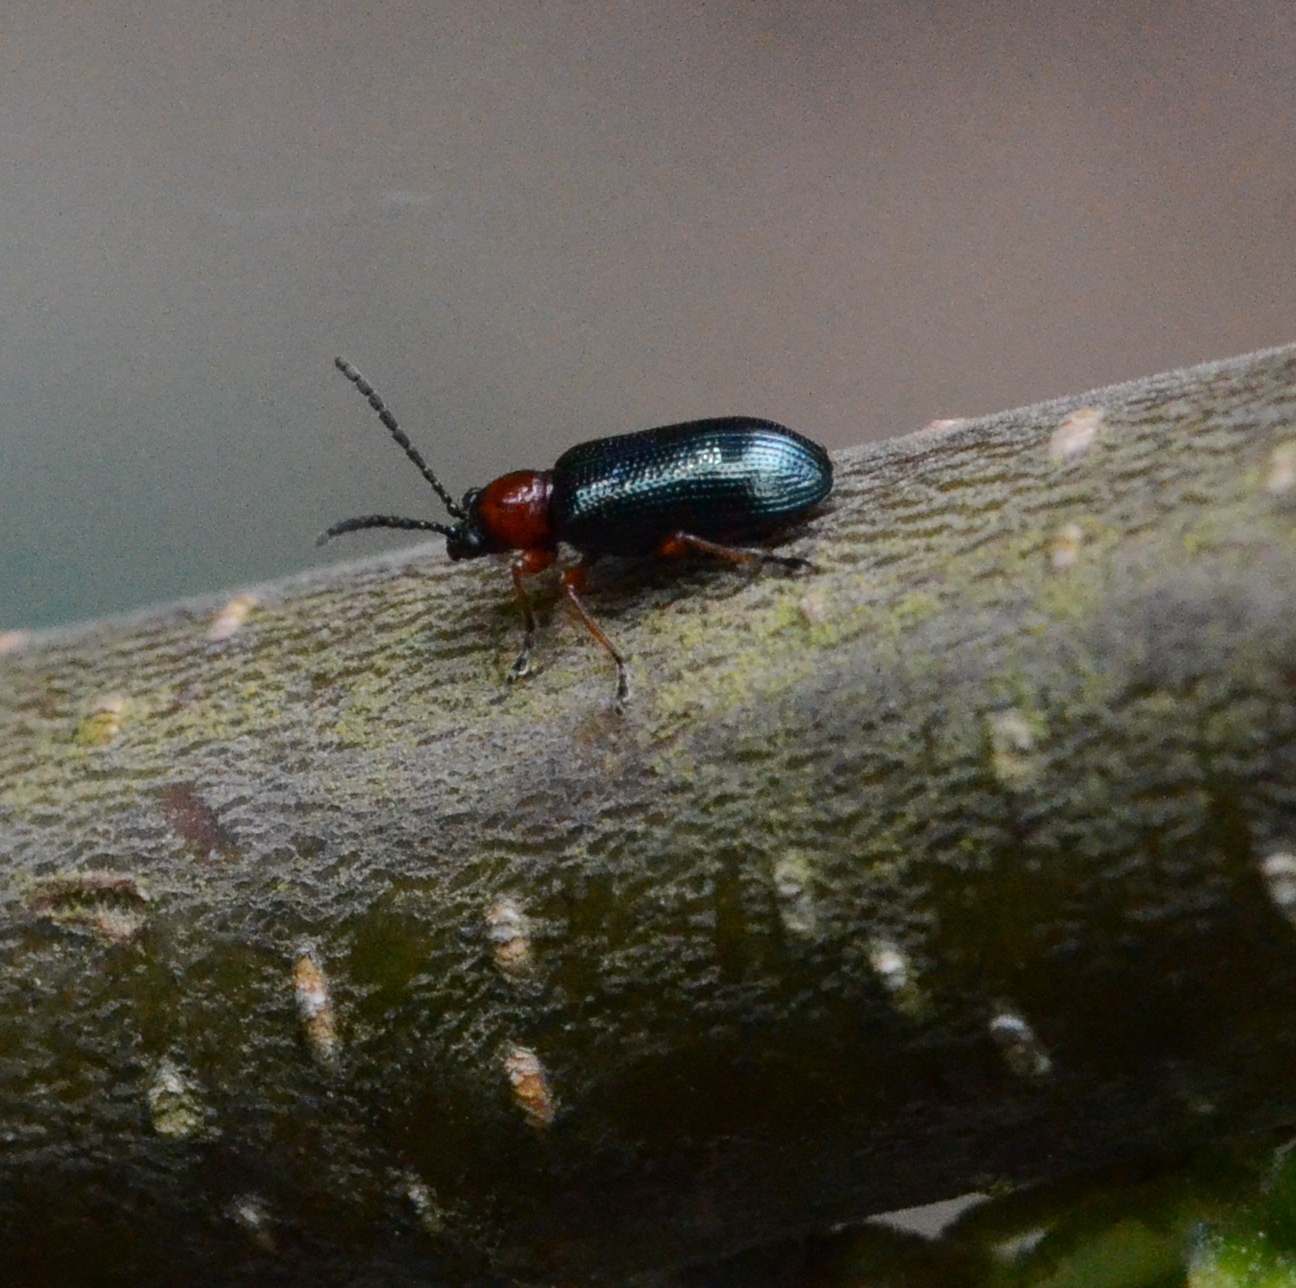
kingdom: Animalia
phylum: Arthropoda
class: Insecta
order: Coleoptera
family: Chrysomelidae
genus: Oulema
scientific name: Oulema
